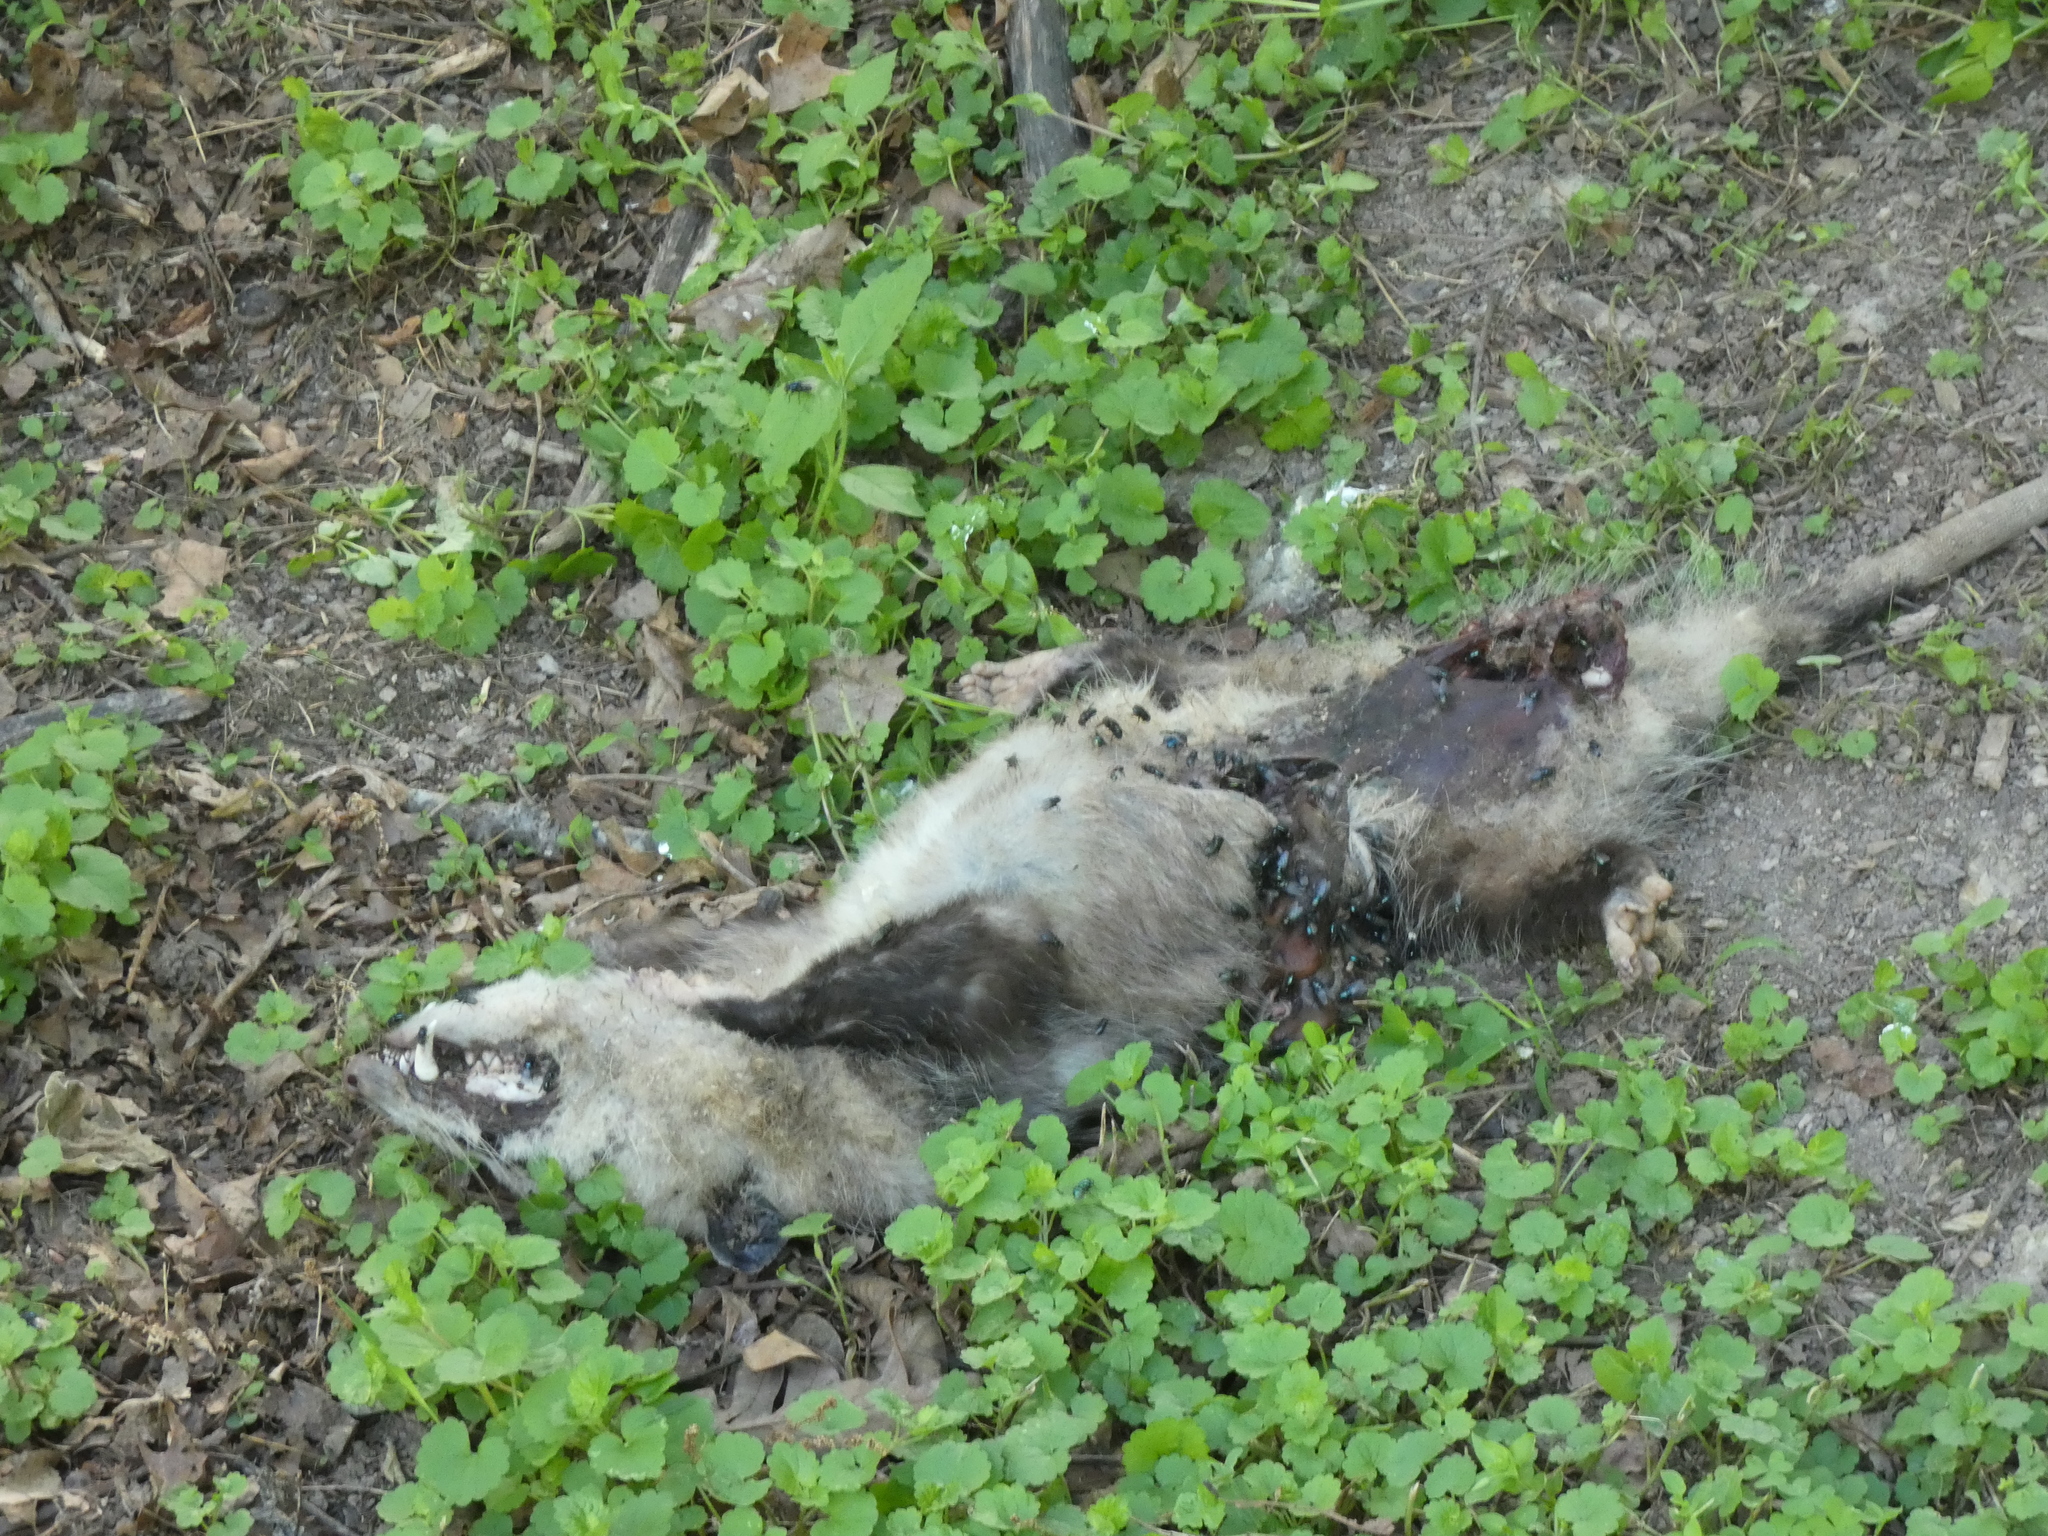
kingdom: Animalia
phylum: Chordata
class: Mammalia
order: Didelphimorphia
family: Didelphidae
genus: Didelphis
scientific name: Didelphis virginiana
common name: Virginia opossum
